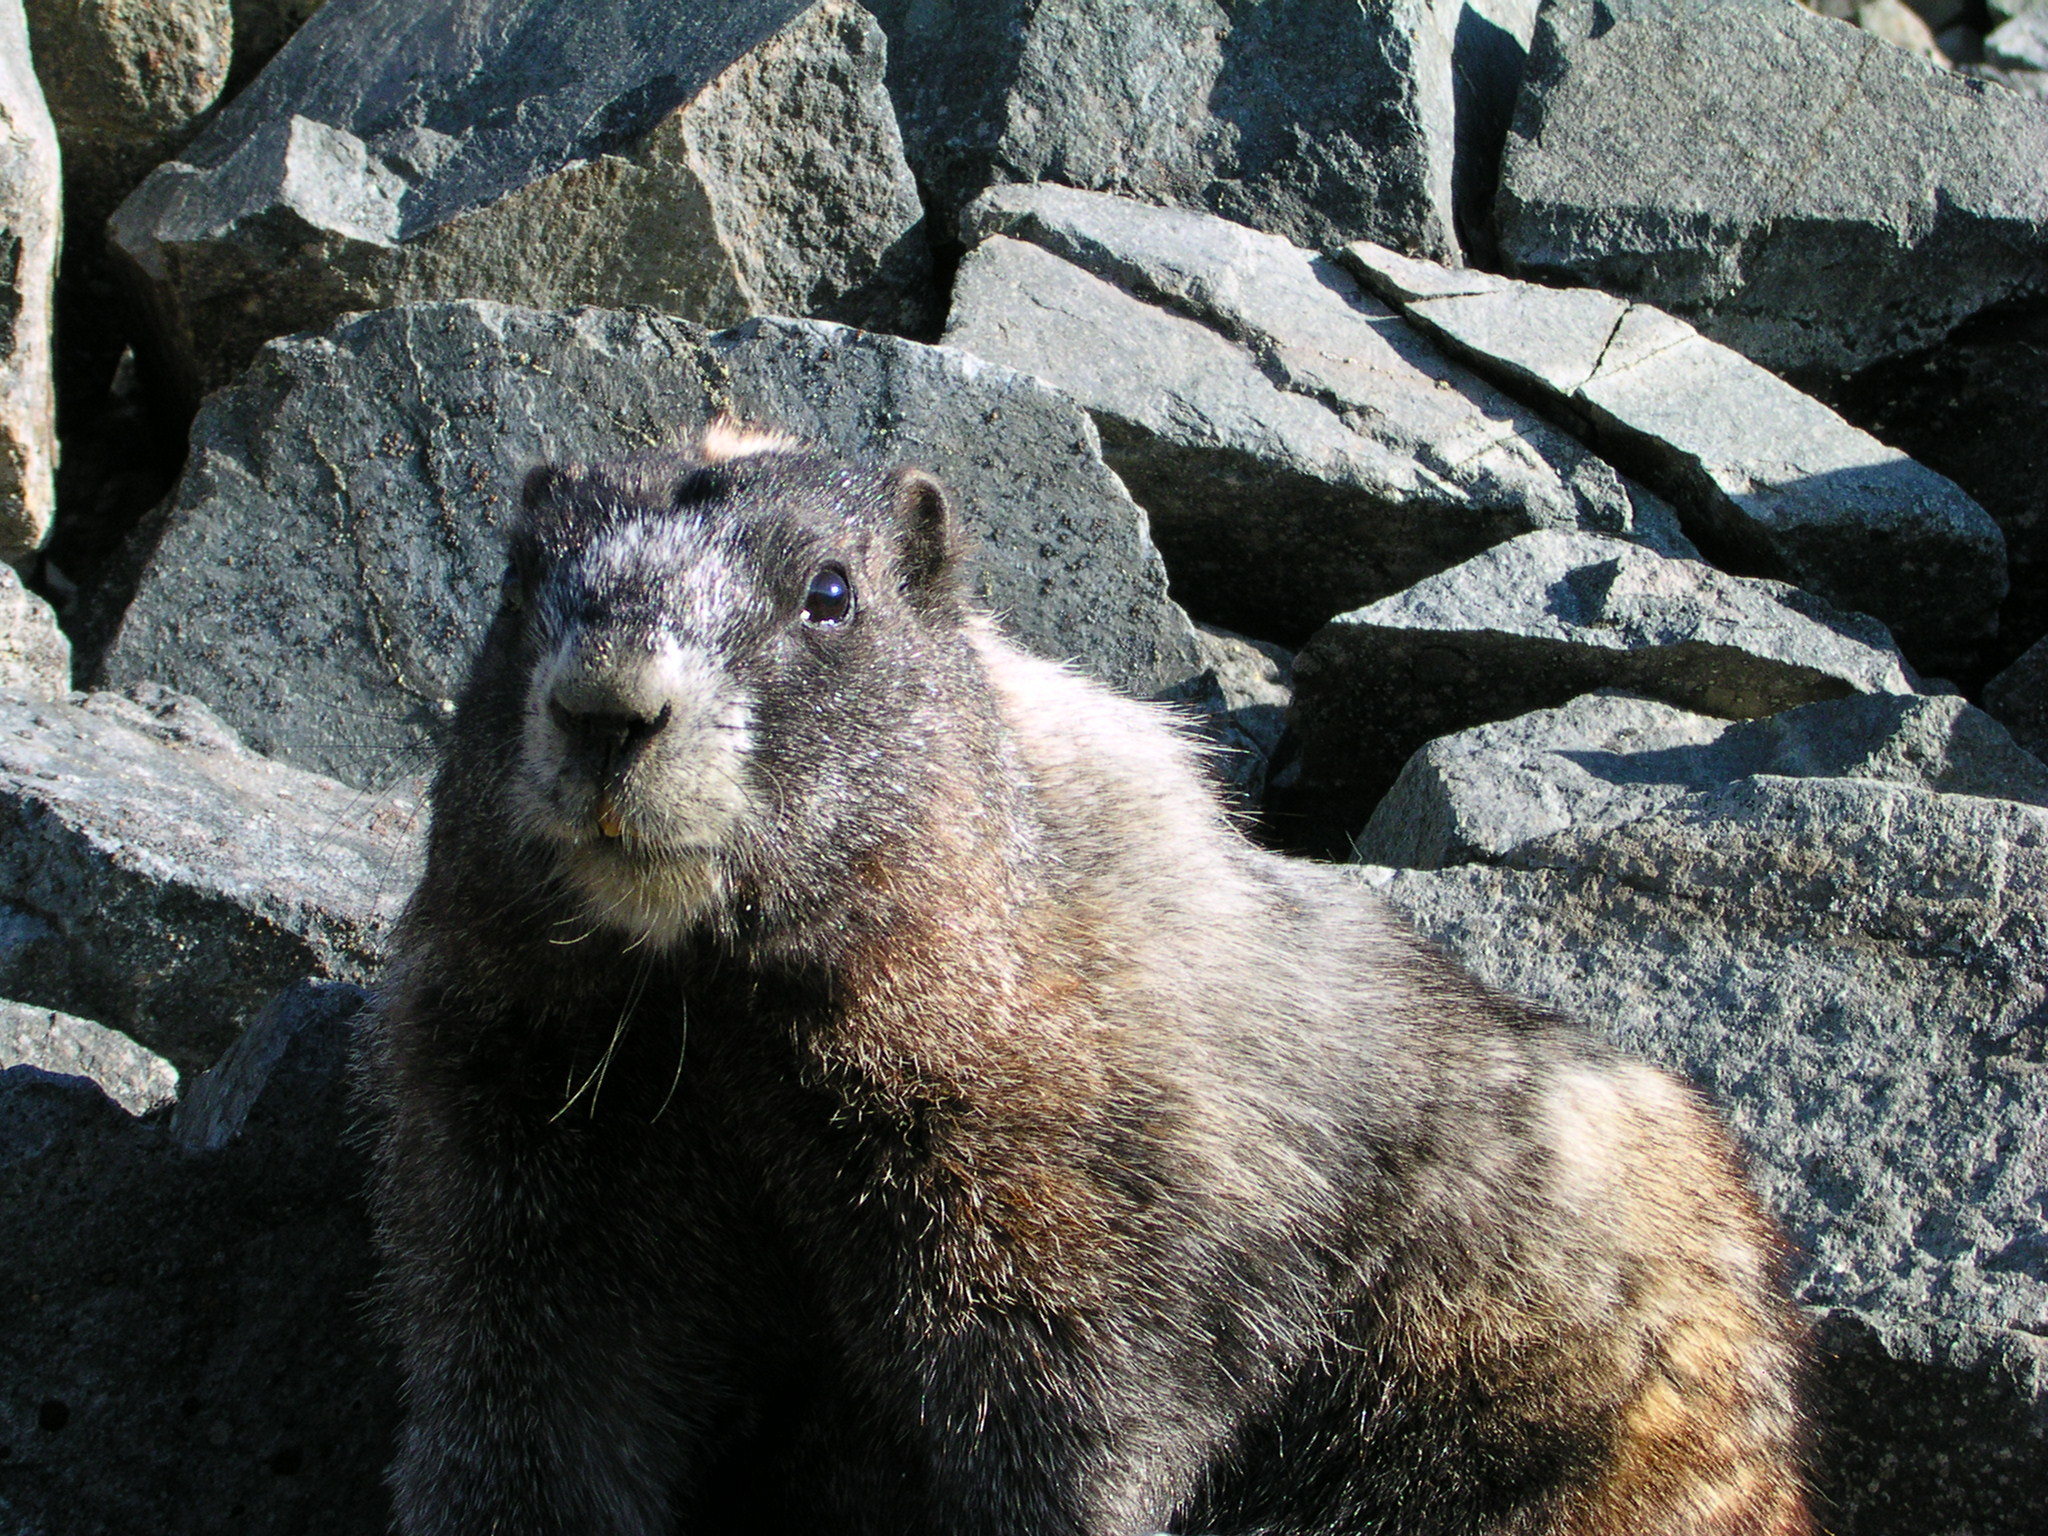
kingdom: Animalia
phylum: Chordata
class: Mammalia
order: Rodentia
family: Sciuridae
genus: Marmota
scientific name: Marmota caligata
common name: Hoary marmot
